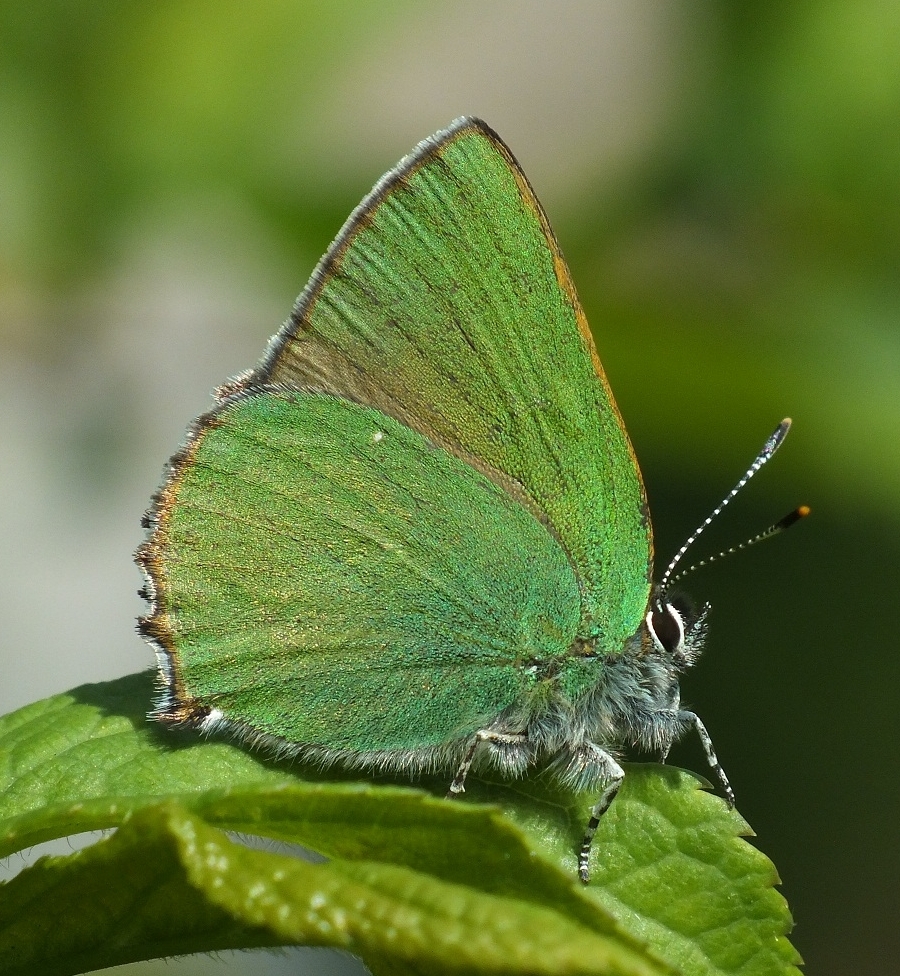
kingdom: Animalia
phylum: Arthropoda
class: Insecta
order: Lepidoptera
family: Lycaenidae
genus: Callophrys
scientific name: Callophrys rubi
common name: Green hairstreak
